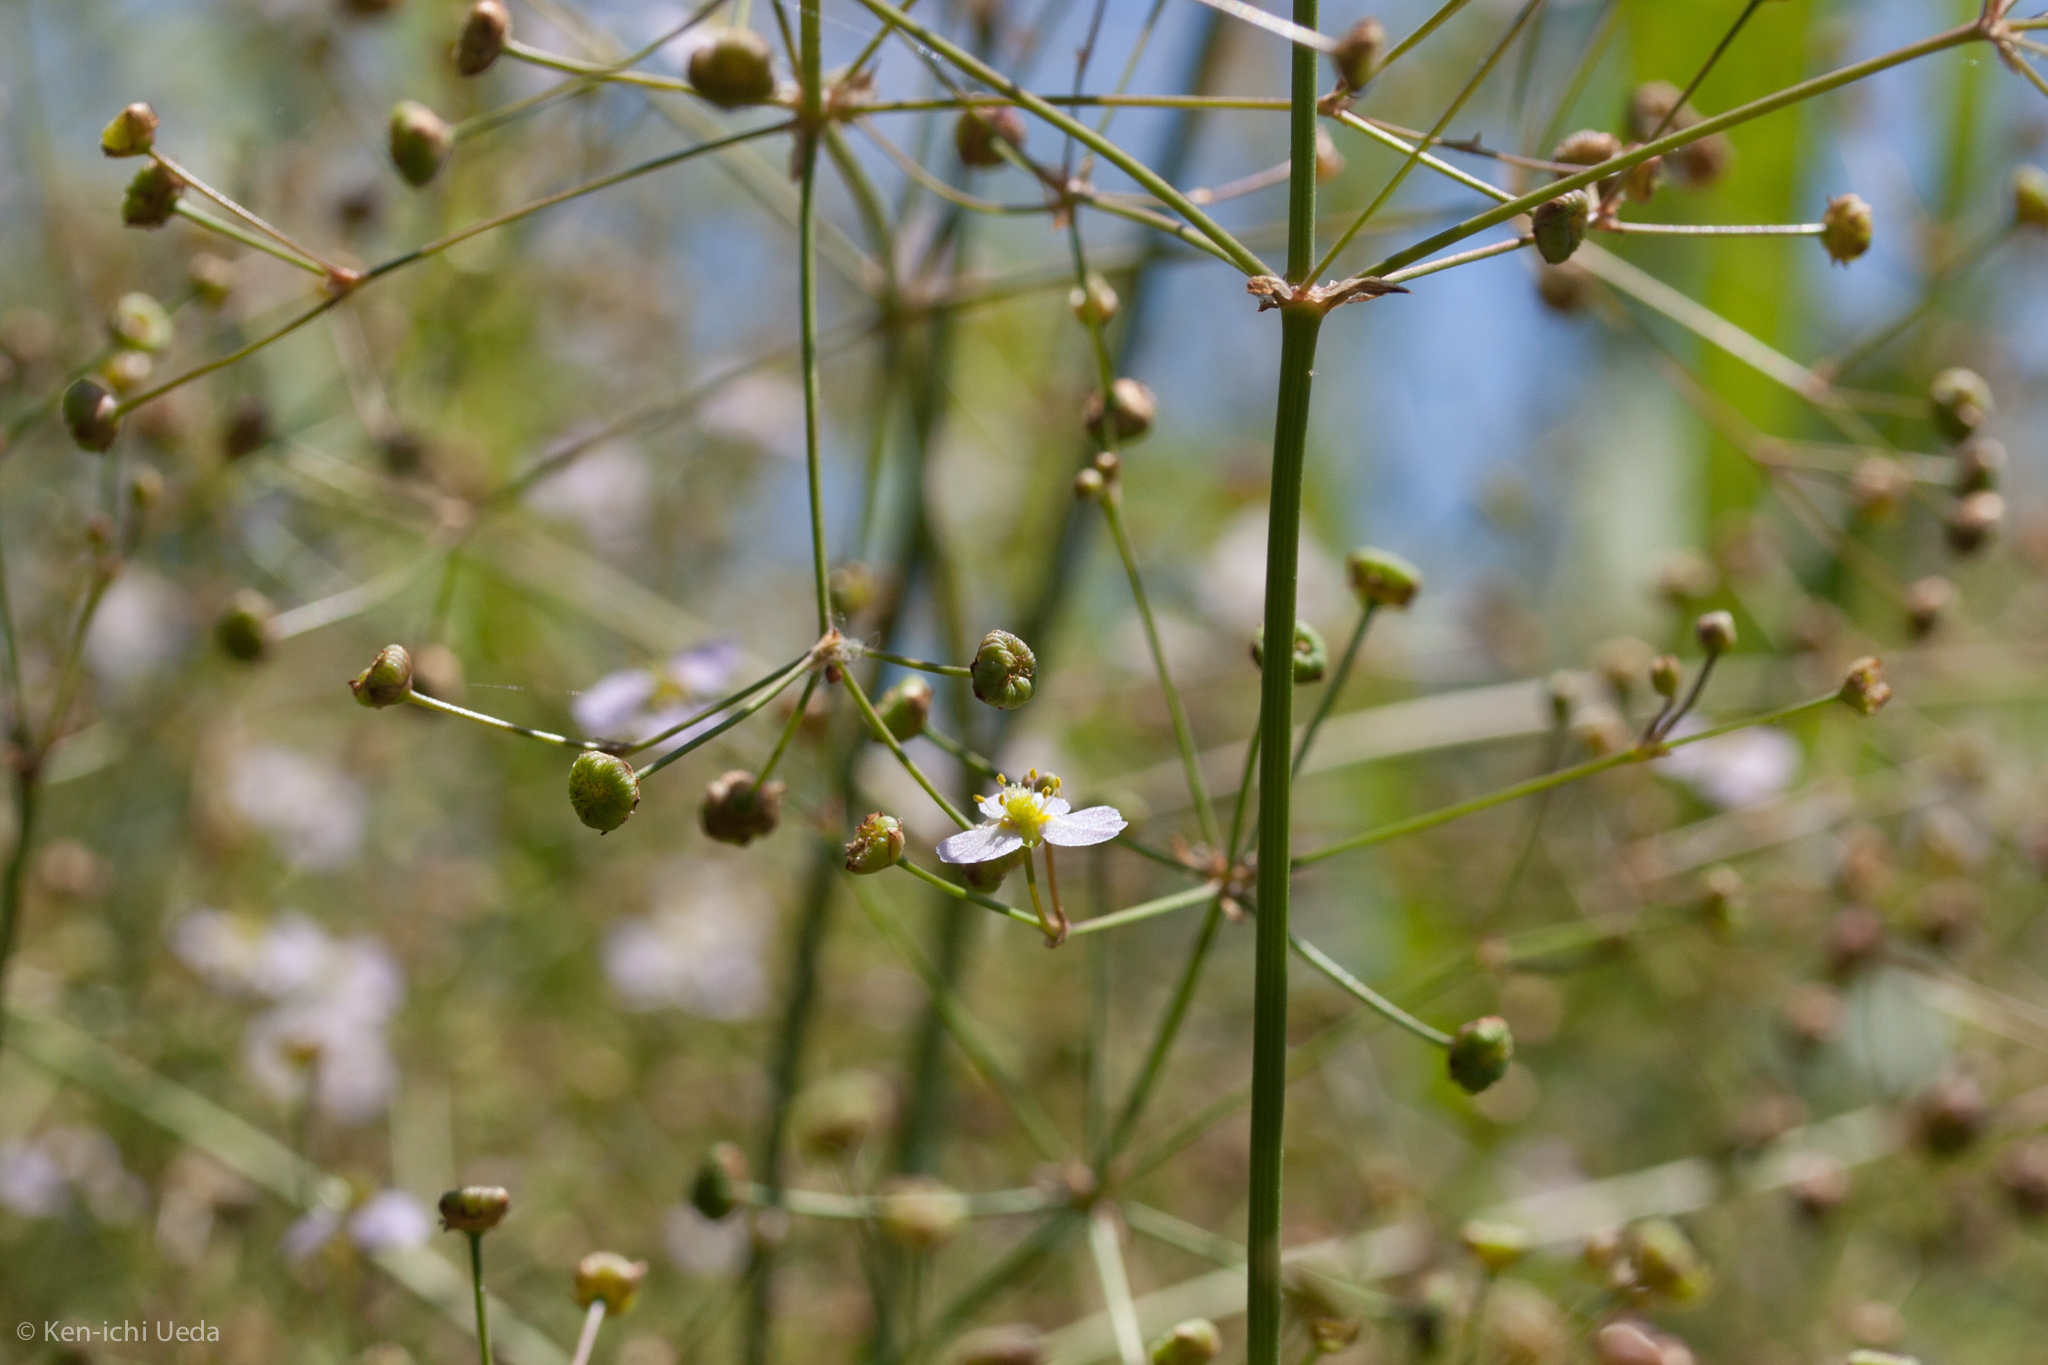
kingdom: Plantae
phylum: Tracheophyta
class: Liliopsida
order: Alismatales
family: Alismataceae
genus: Alisma
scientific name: Alisma lanceolatum
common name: Narrow-leaved water-plantain
